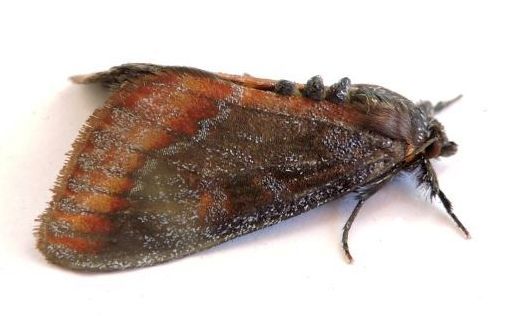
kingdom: Animalia
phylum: Arthropoda
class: Insecta
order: Lepidoptera
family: Noctuidae
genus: Gerra
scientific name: Gerra radicalis
